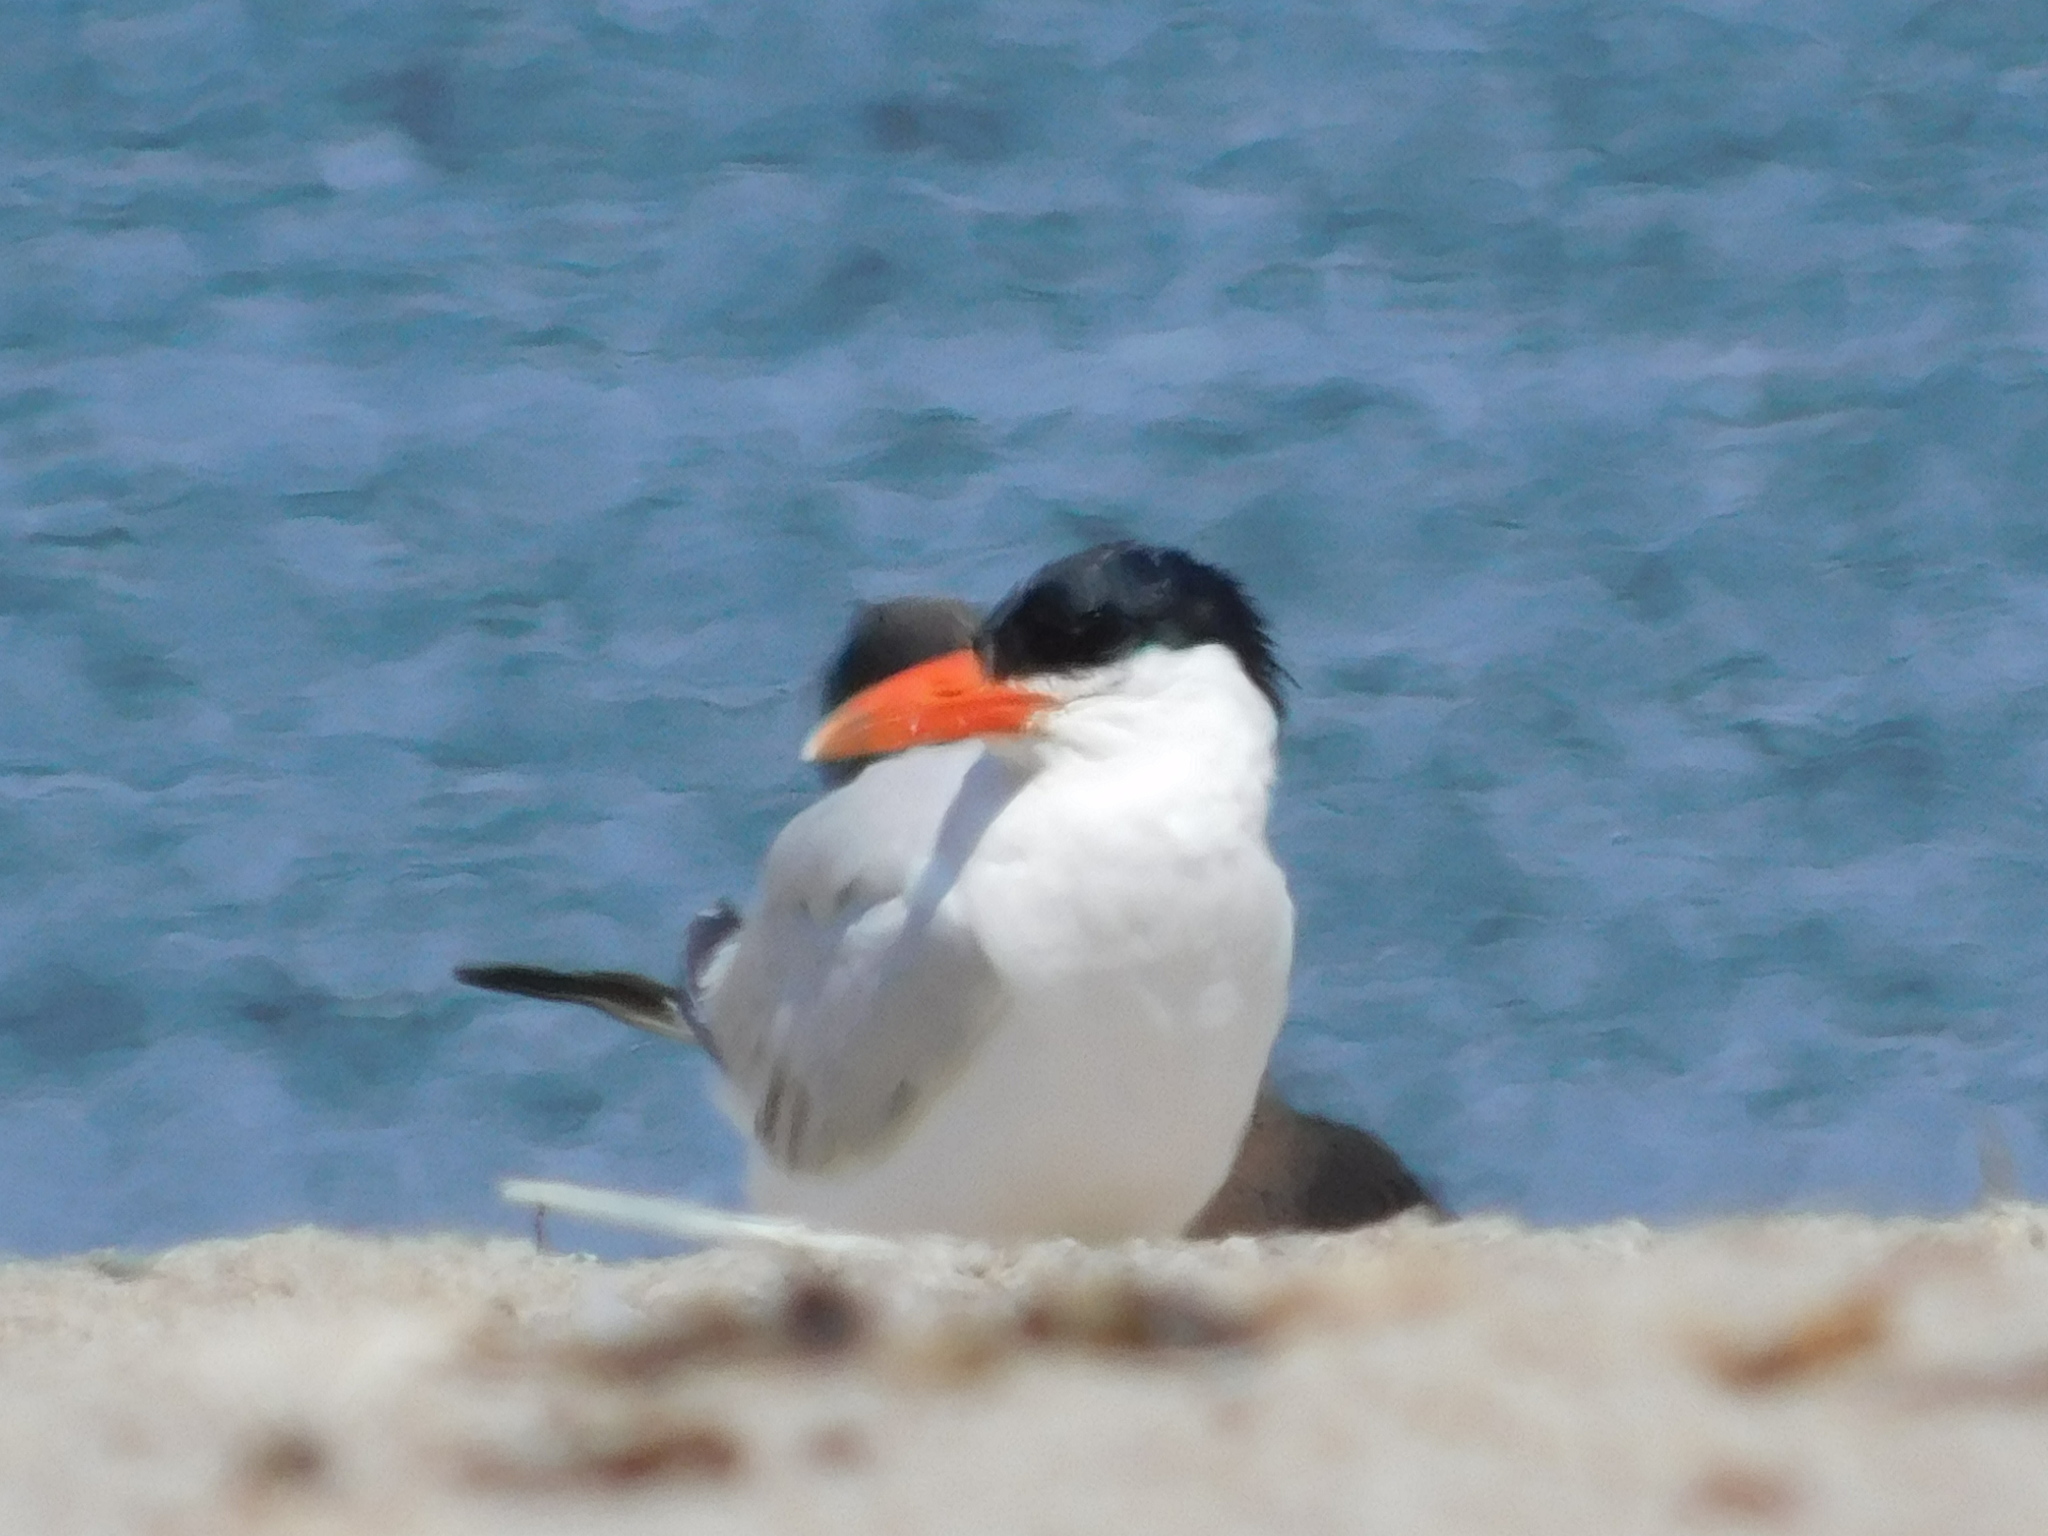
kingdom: Animalia
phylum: Chordata
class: Aves
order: Charadriiformes
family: Laridae
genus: Hydroprogne
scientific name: Hydroprogne caspia
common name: Caspian tern
